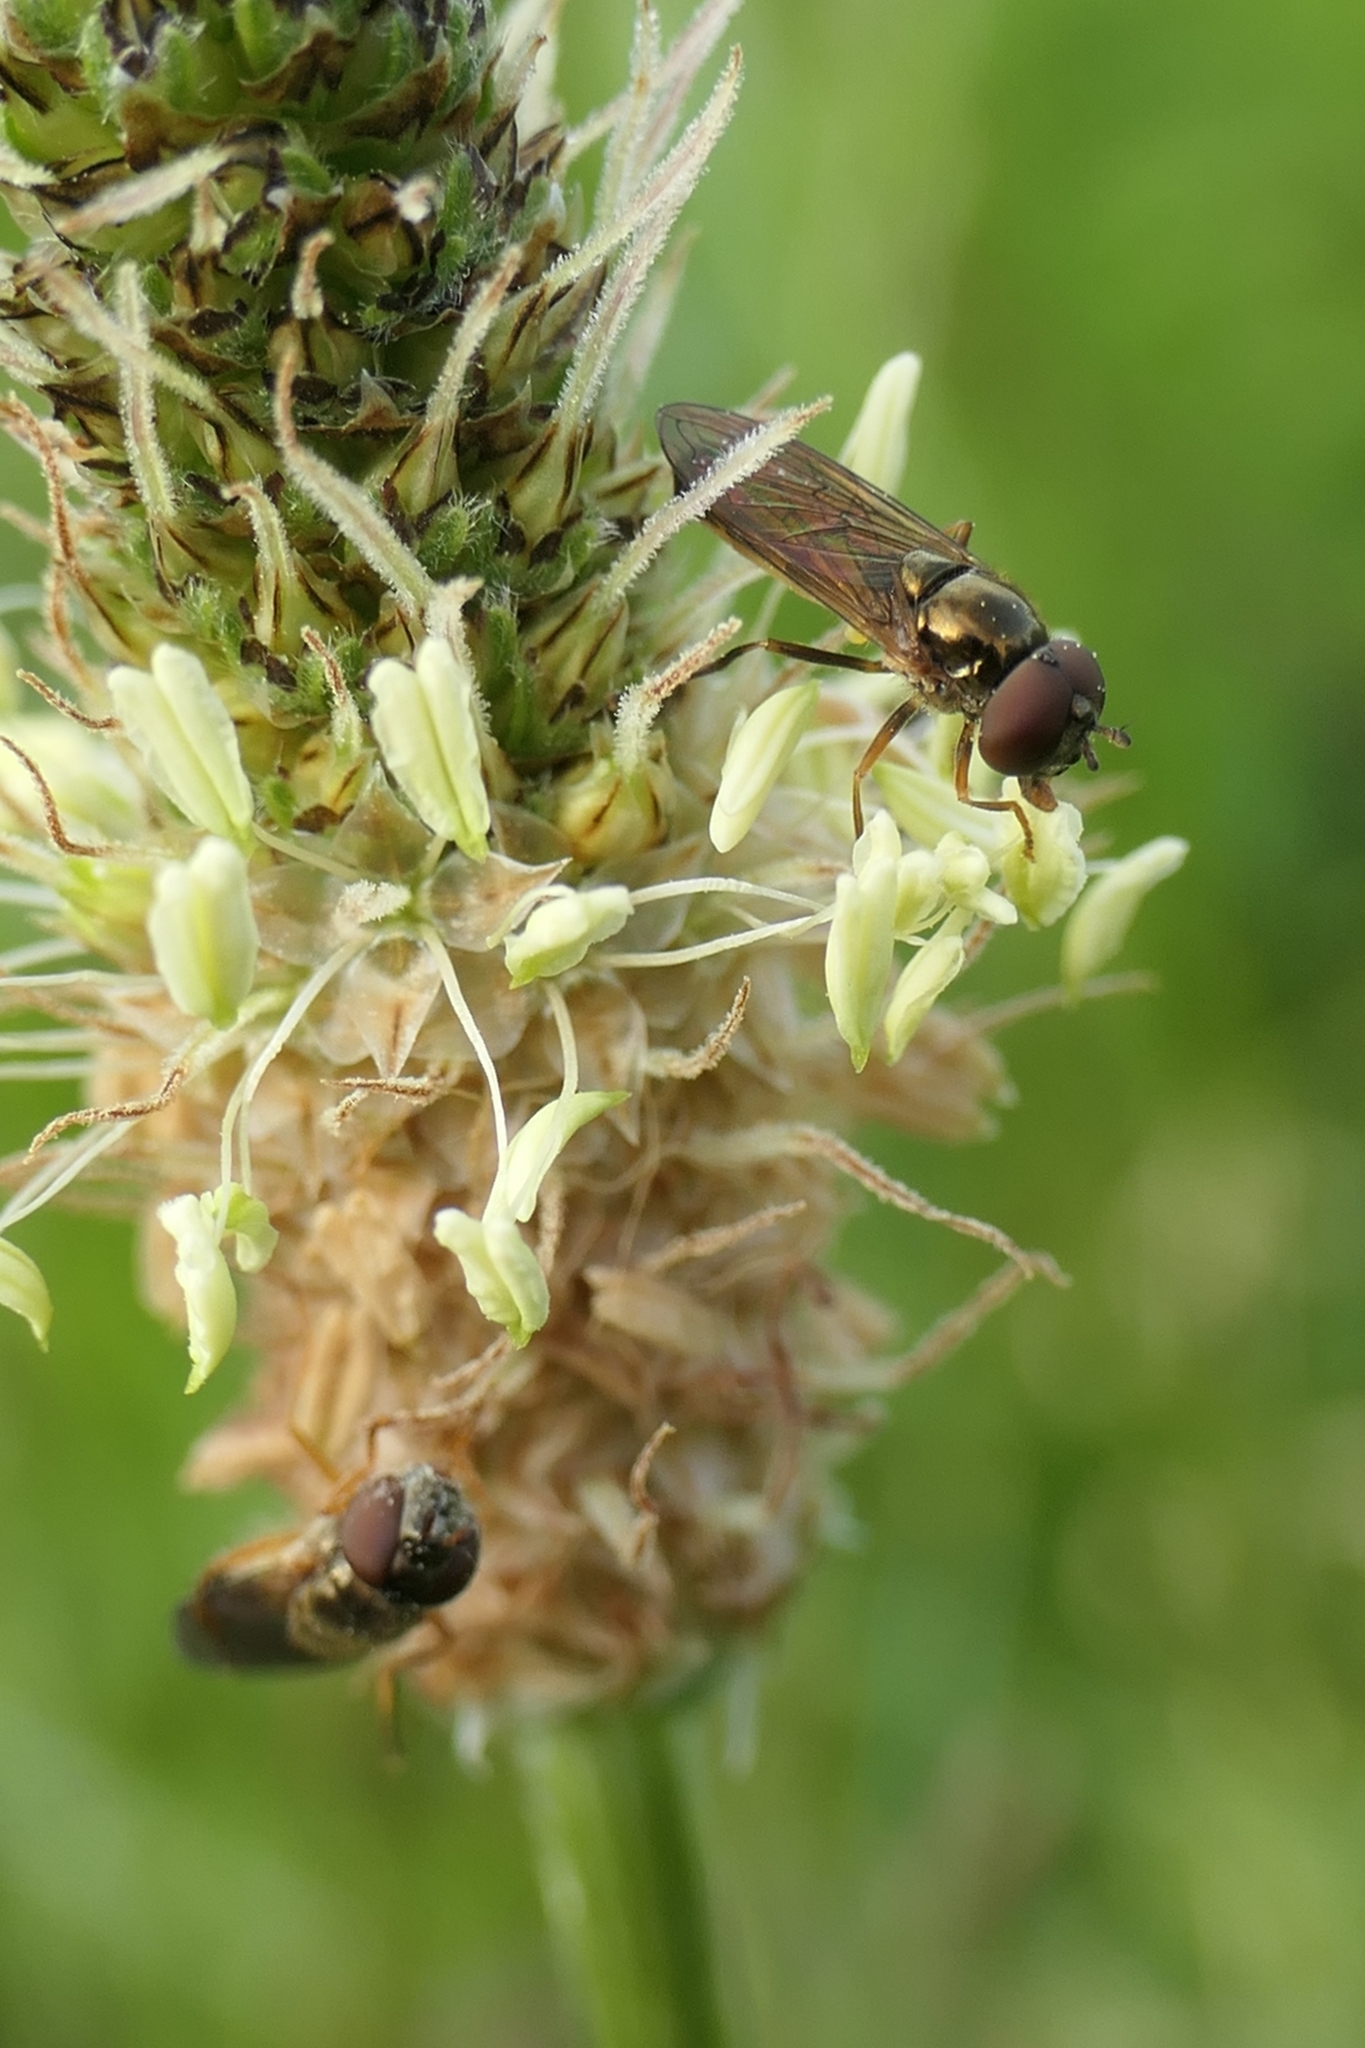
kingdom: Animalia
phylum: Arthropoda
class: Insecta
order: Diptera
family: Syrphidae
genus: Melanostoma
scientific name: Melanostoma fasciatum
